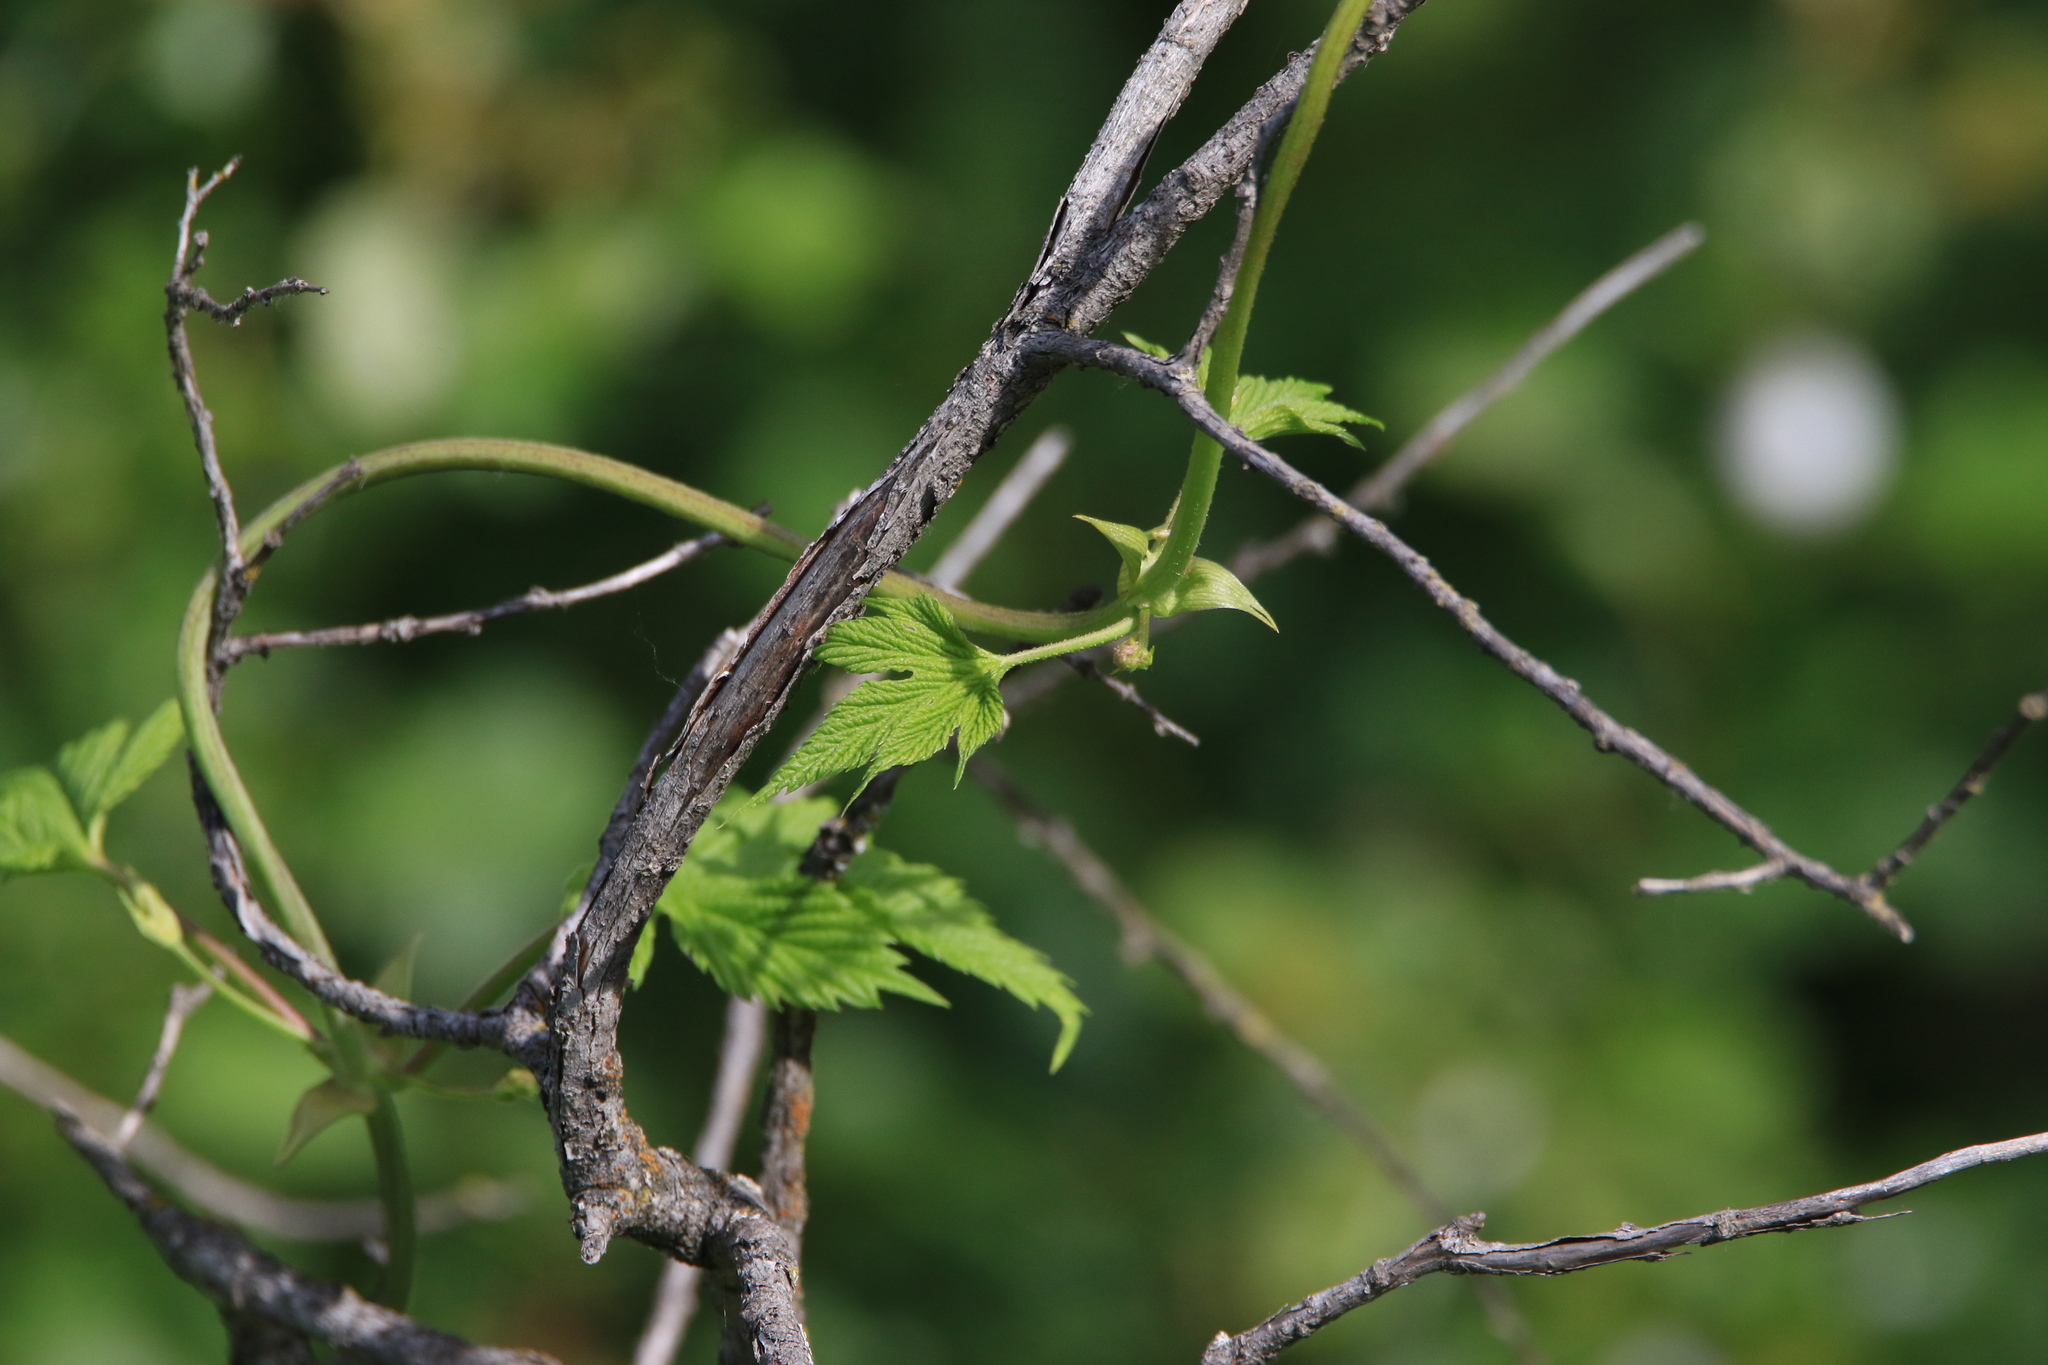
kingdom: Plantae
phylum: Tracheophyta
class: Magnoliopsida
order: Rosales
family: Cannabaceae
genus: Humulus
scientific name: Humulus lupulus
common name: Hop
